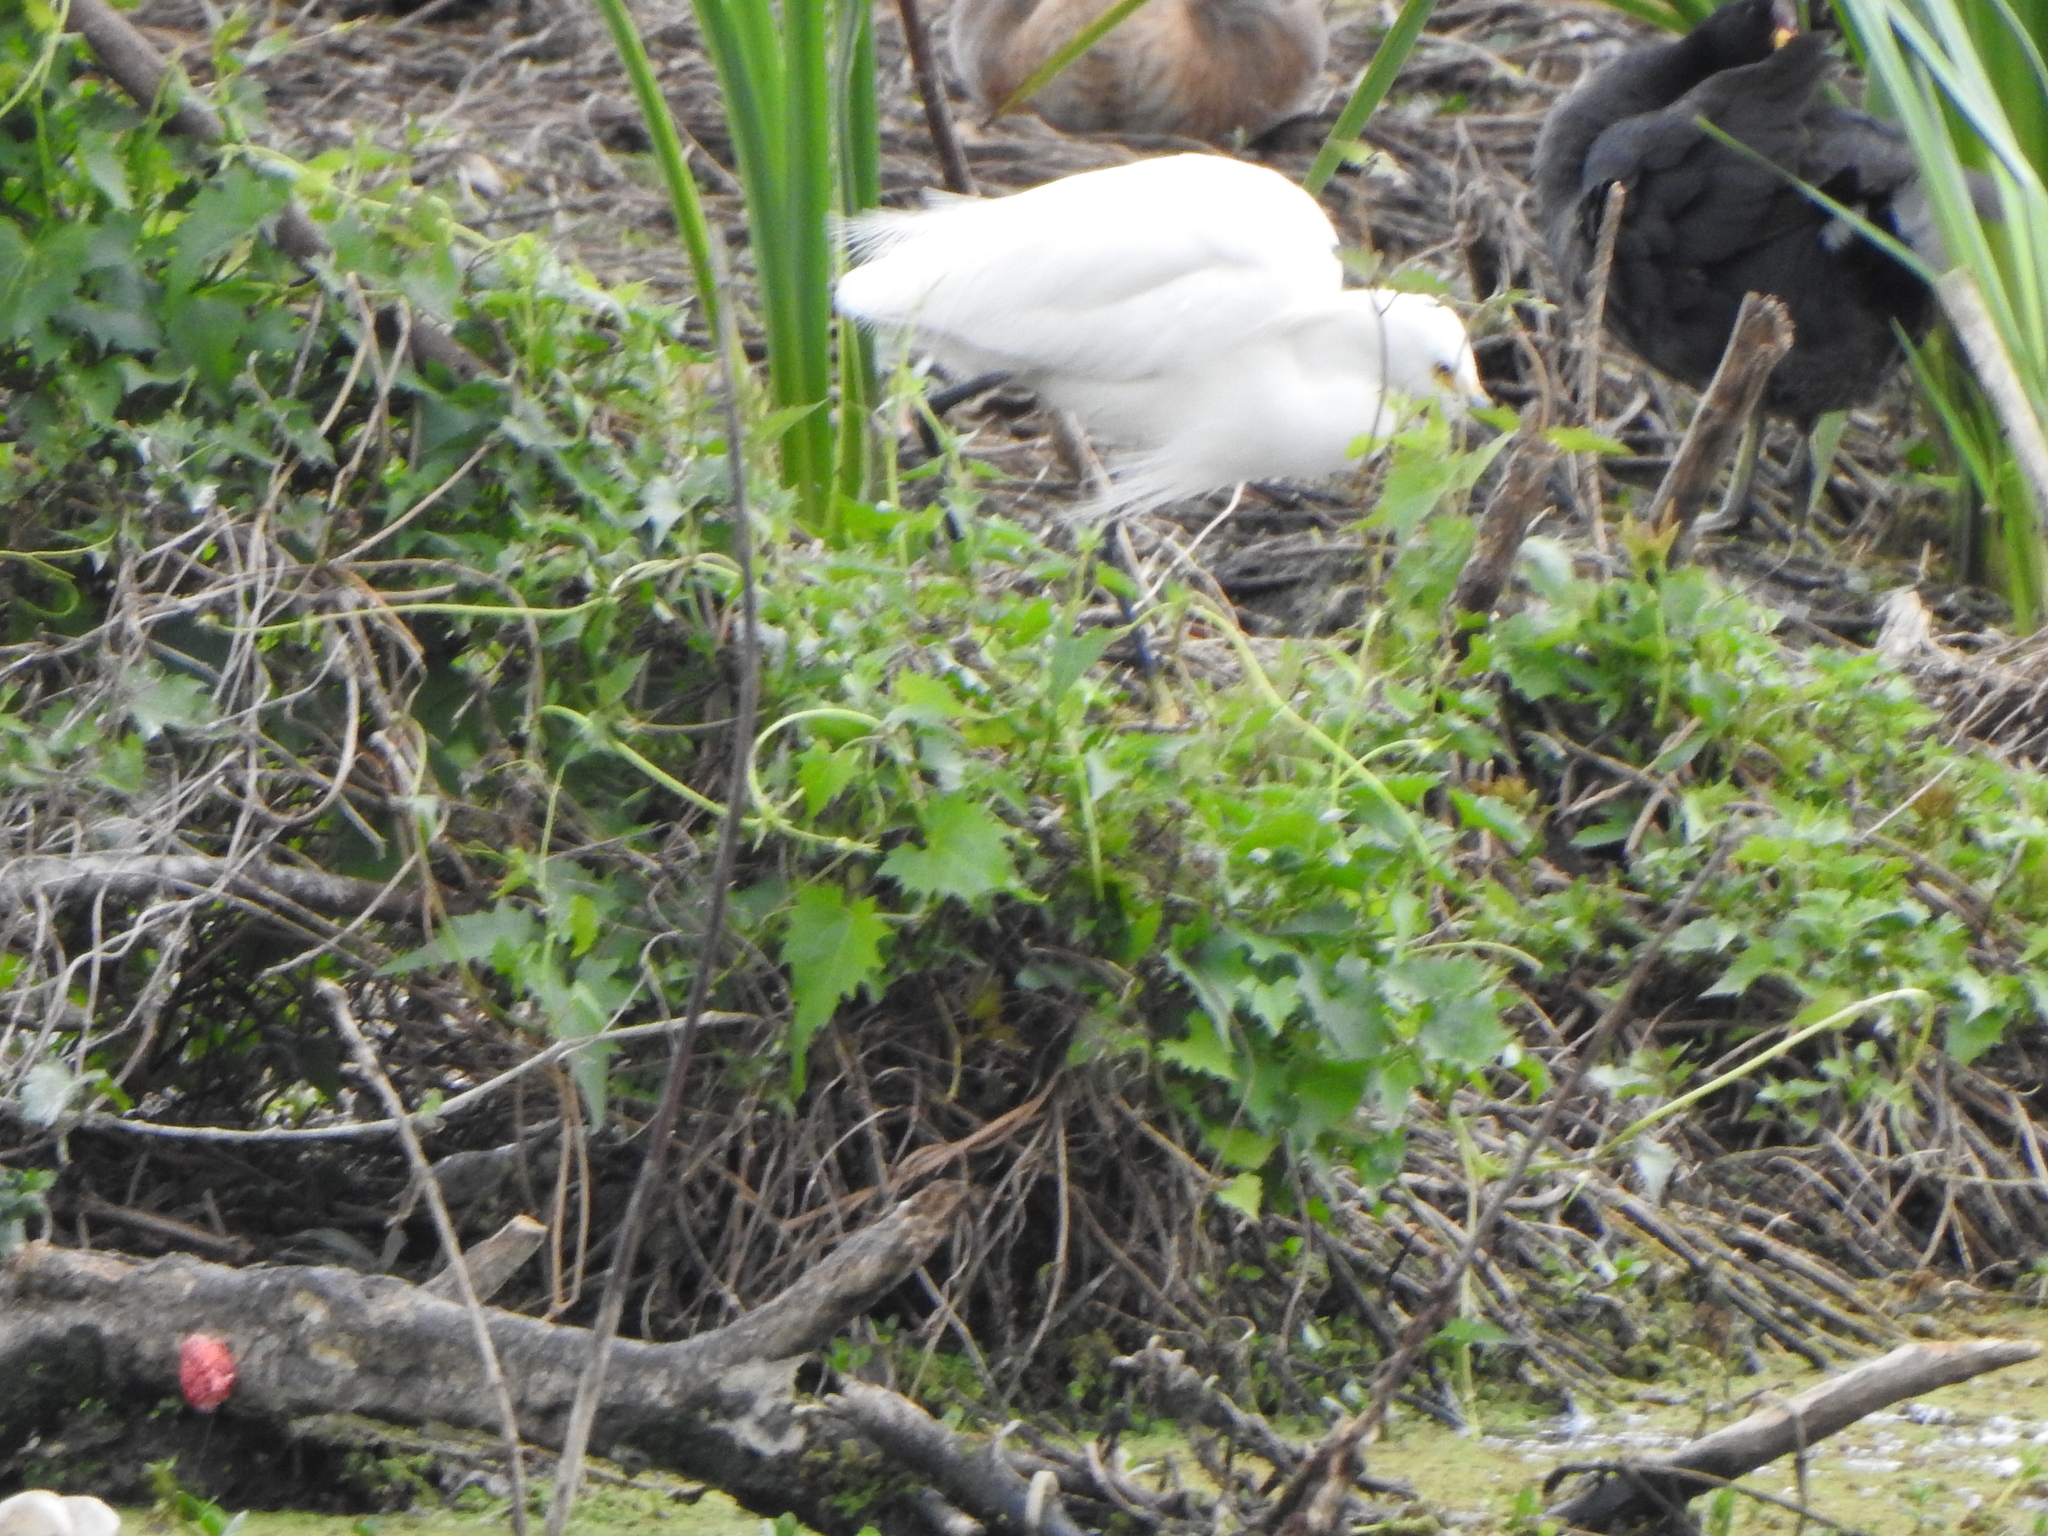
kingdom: Animalia
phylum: Chordata
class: Aves
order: Pelecaniformes
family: Ardeidae
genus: Egretta
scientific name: Egretta thula
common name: Snowy egret
